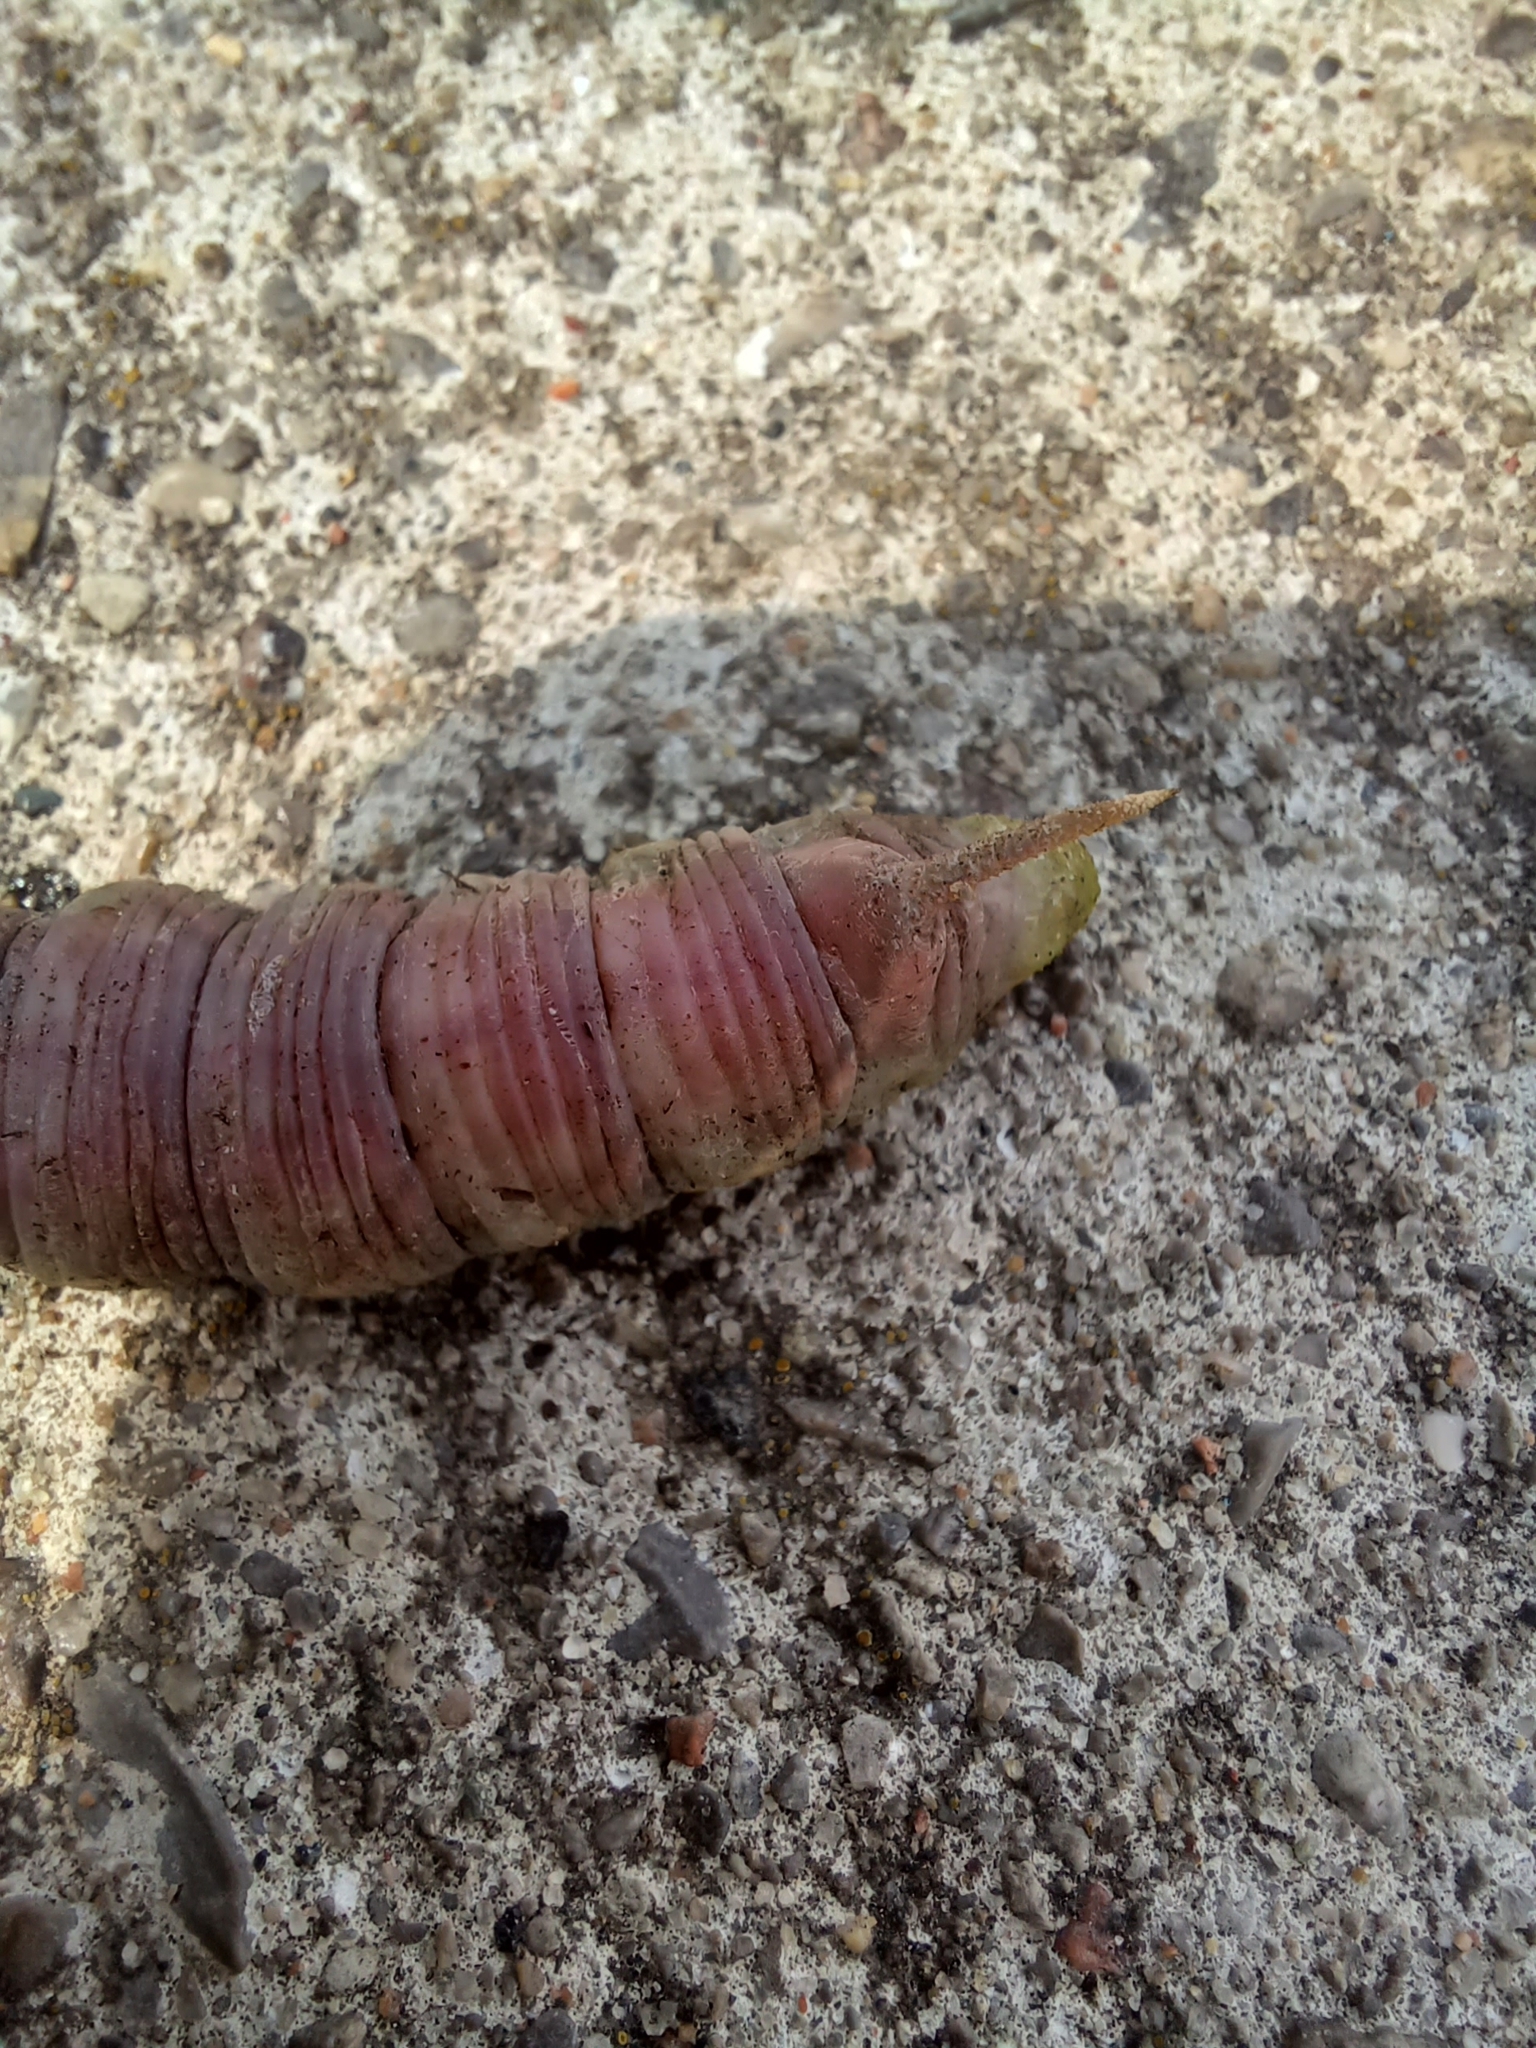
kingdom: Animalia
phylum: Arthropoda
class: Insecta
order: Lepidoptera
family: Sphingidae
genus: Ceratomia
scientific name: Ceratomia undulosa
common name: Waved sphinx
